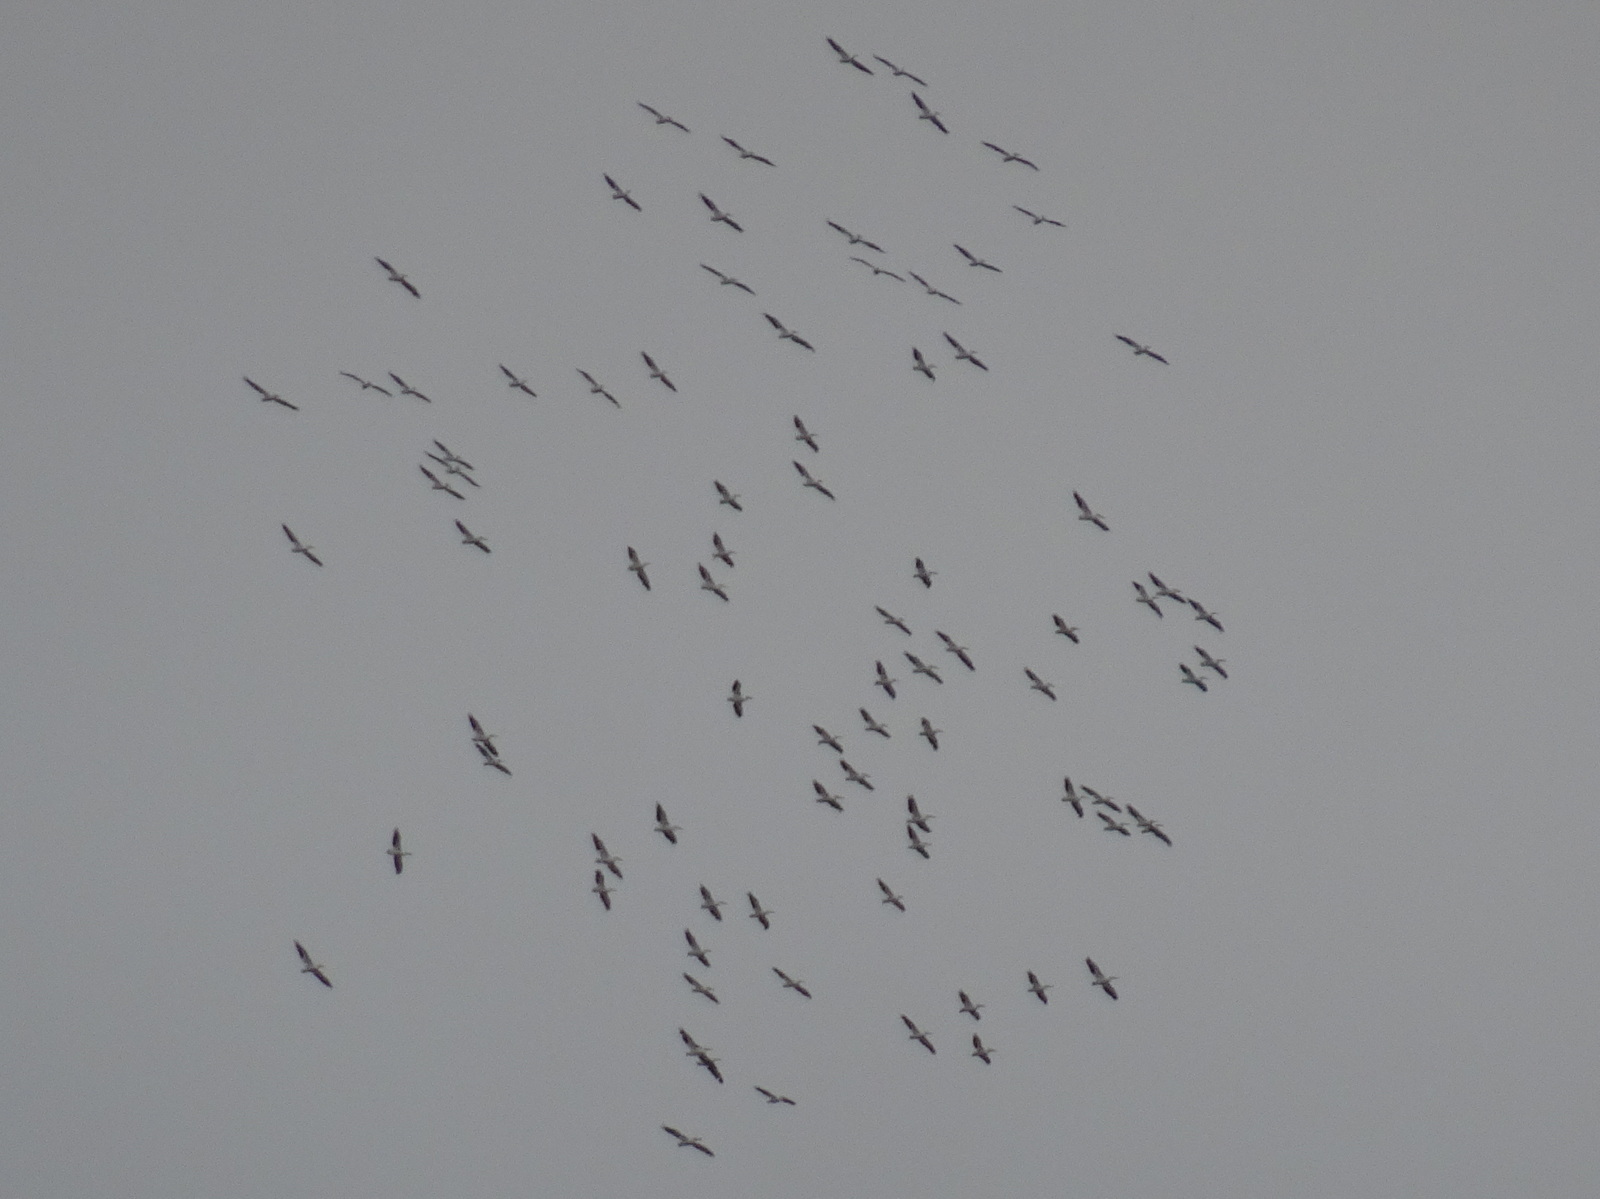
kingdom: Animalia
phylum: Chordata
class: Aves
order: Pelecaniformes
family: Pelecanidae
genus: Pelecanus
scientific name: Pelecanus erythrorhynchos
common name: American white pelican
